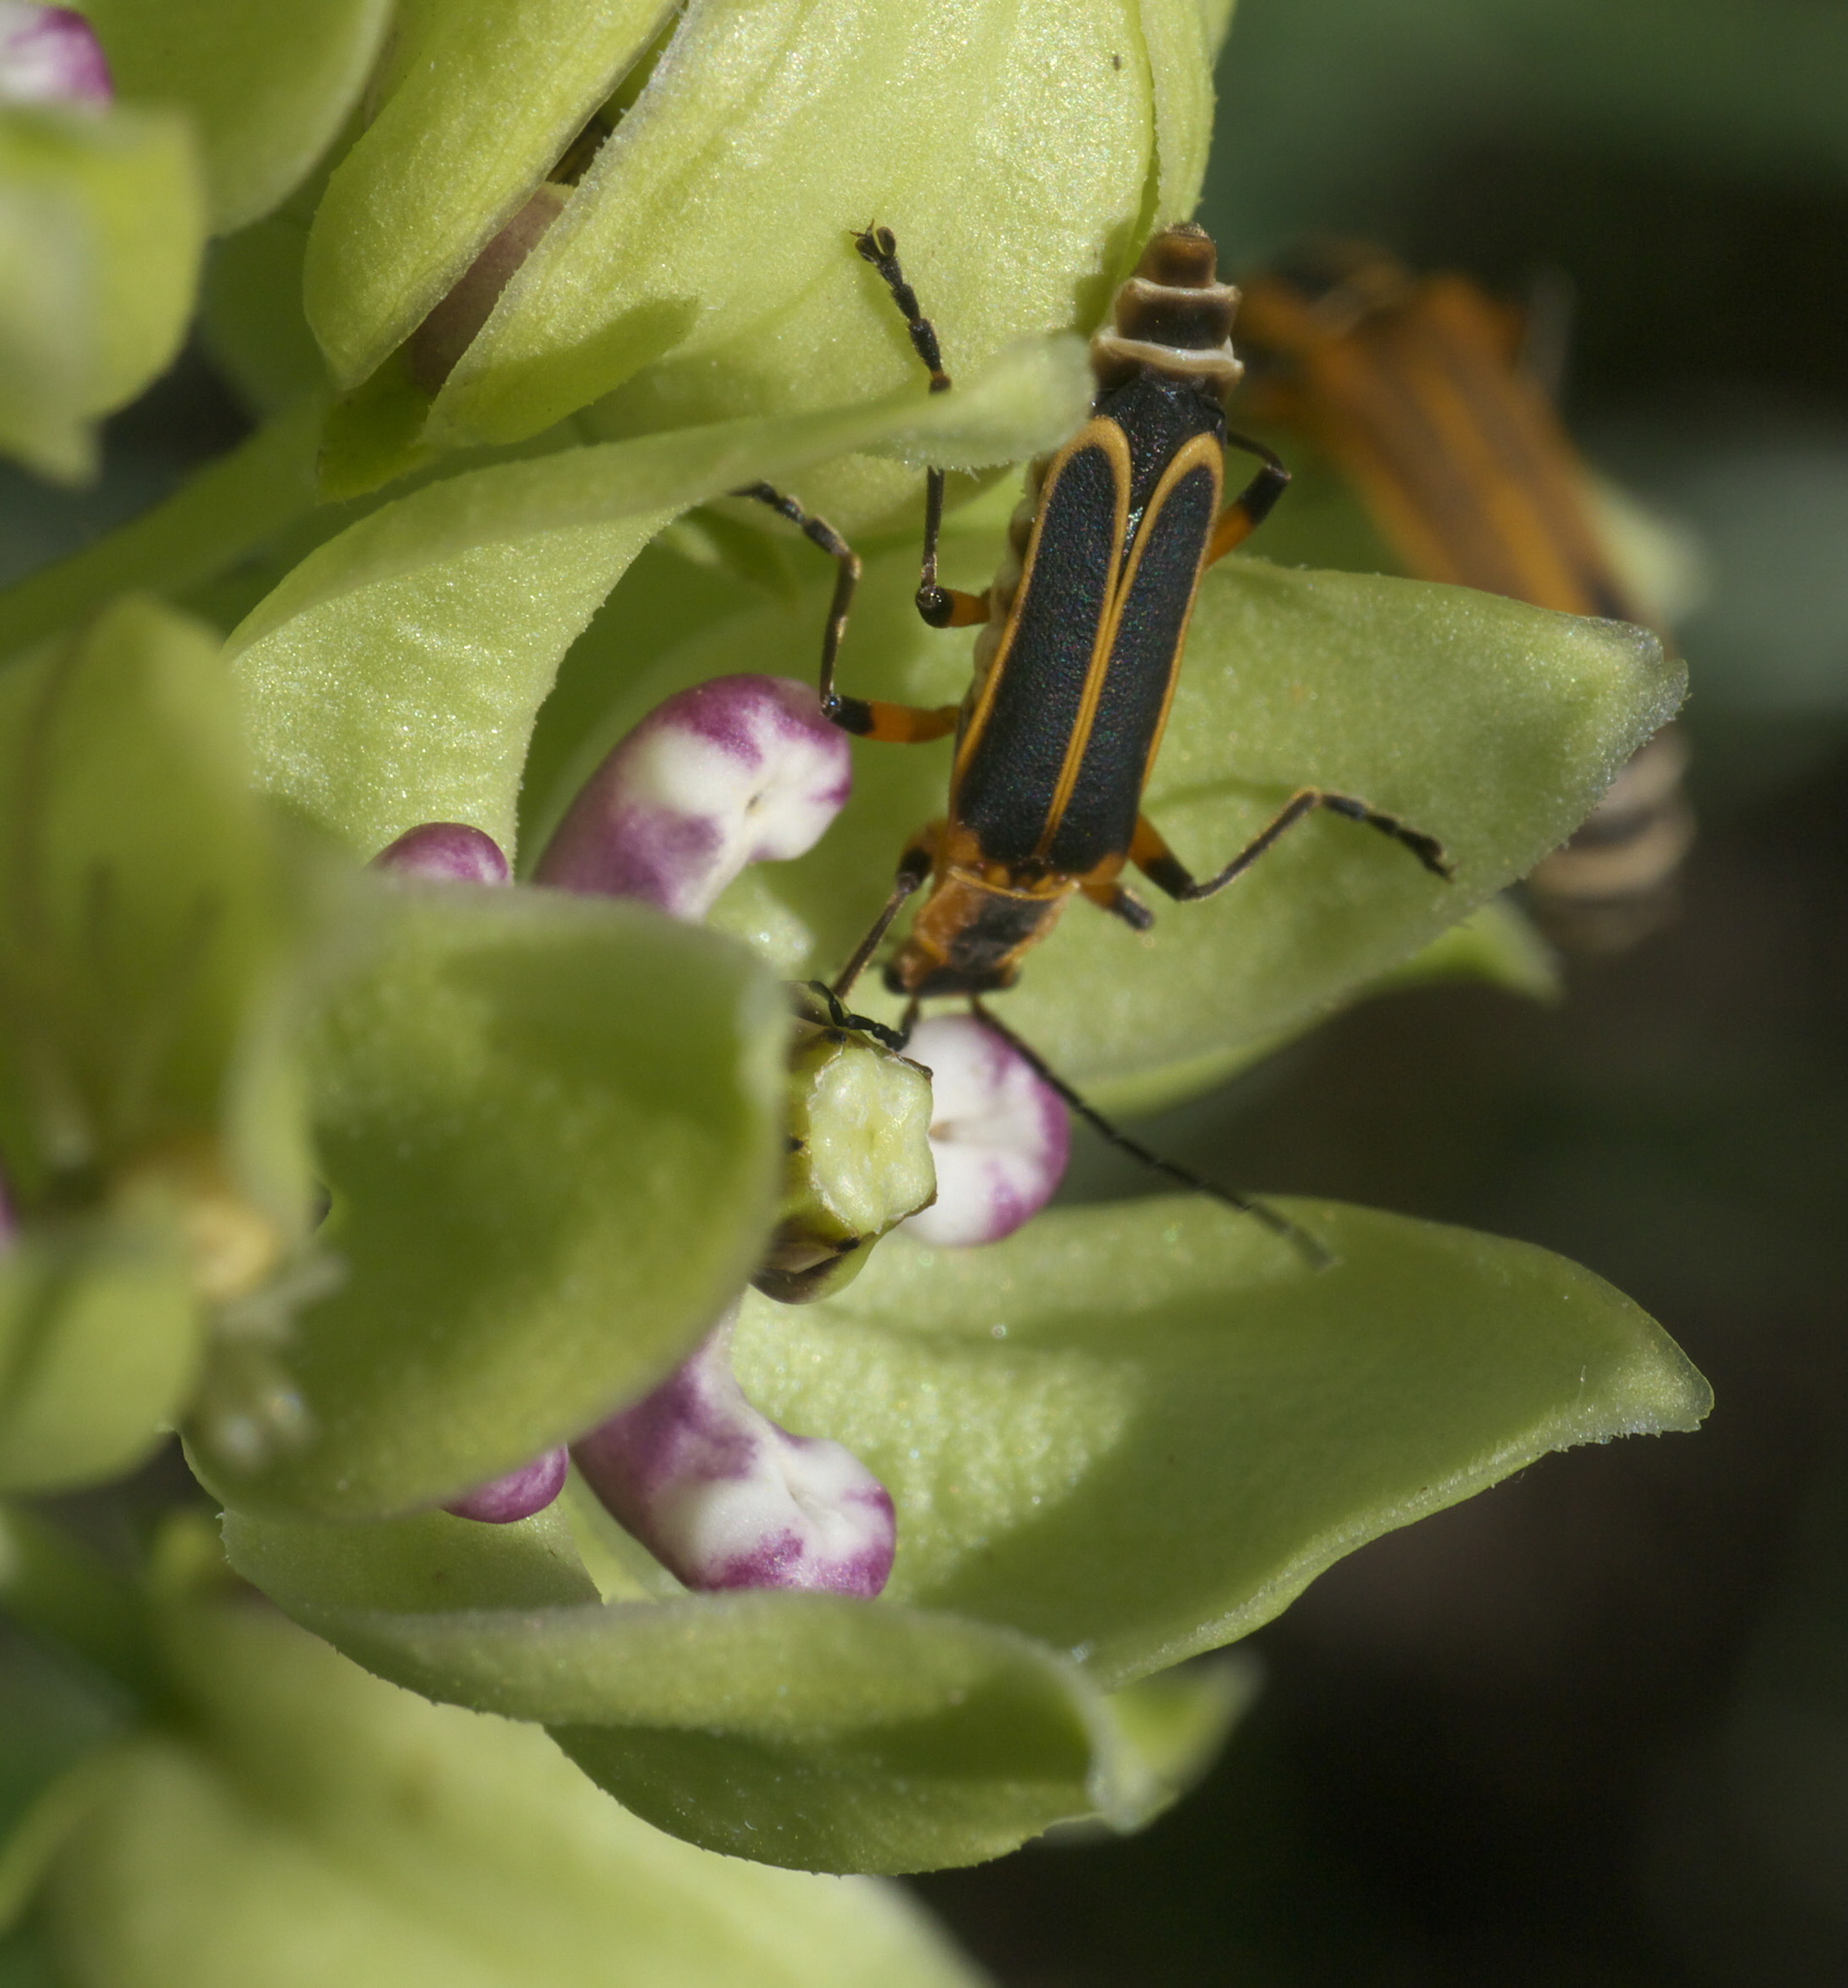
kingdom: Animalia
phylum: Arthropoda
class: Insecta
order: Coleoptera
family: Cantharidae
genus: Chauliognathus
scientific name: Chauliognathus marginatus
